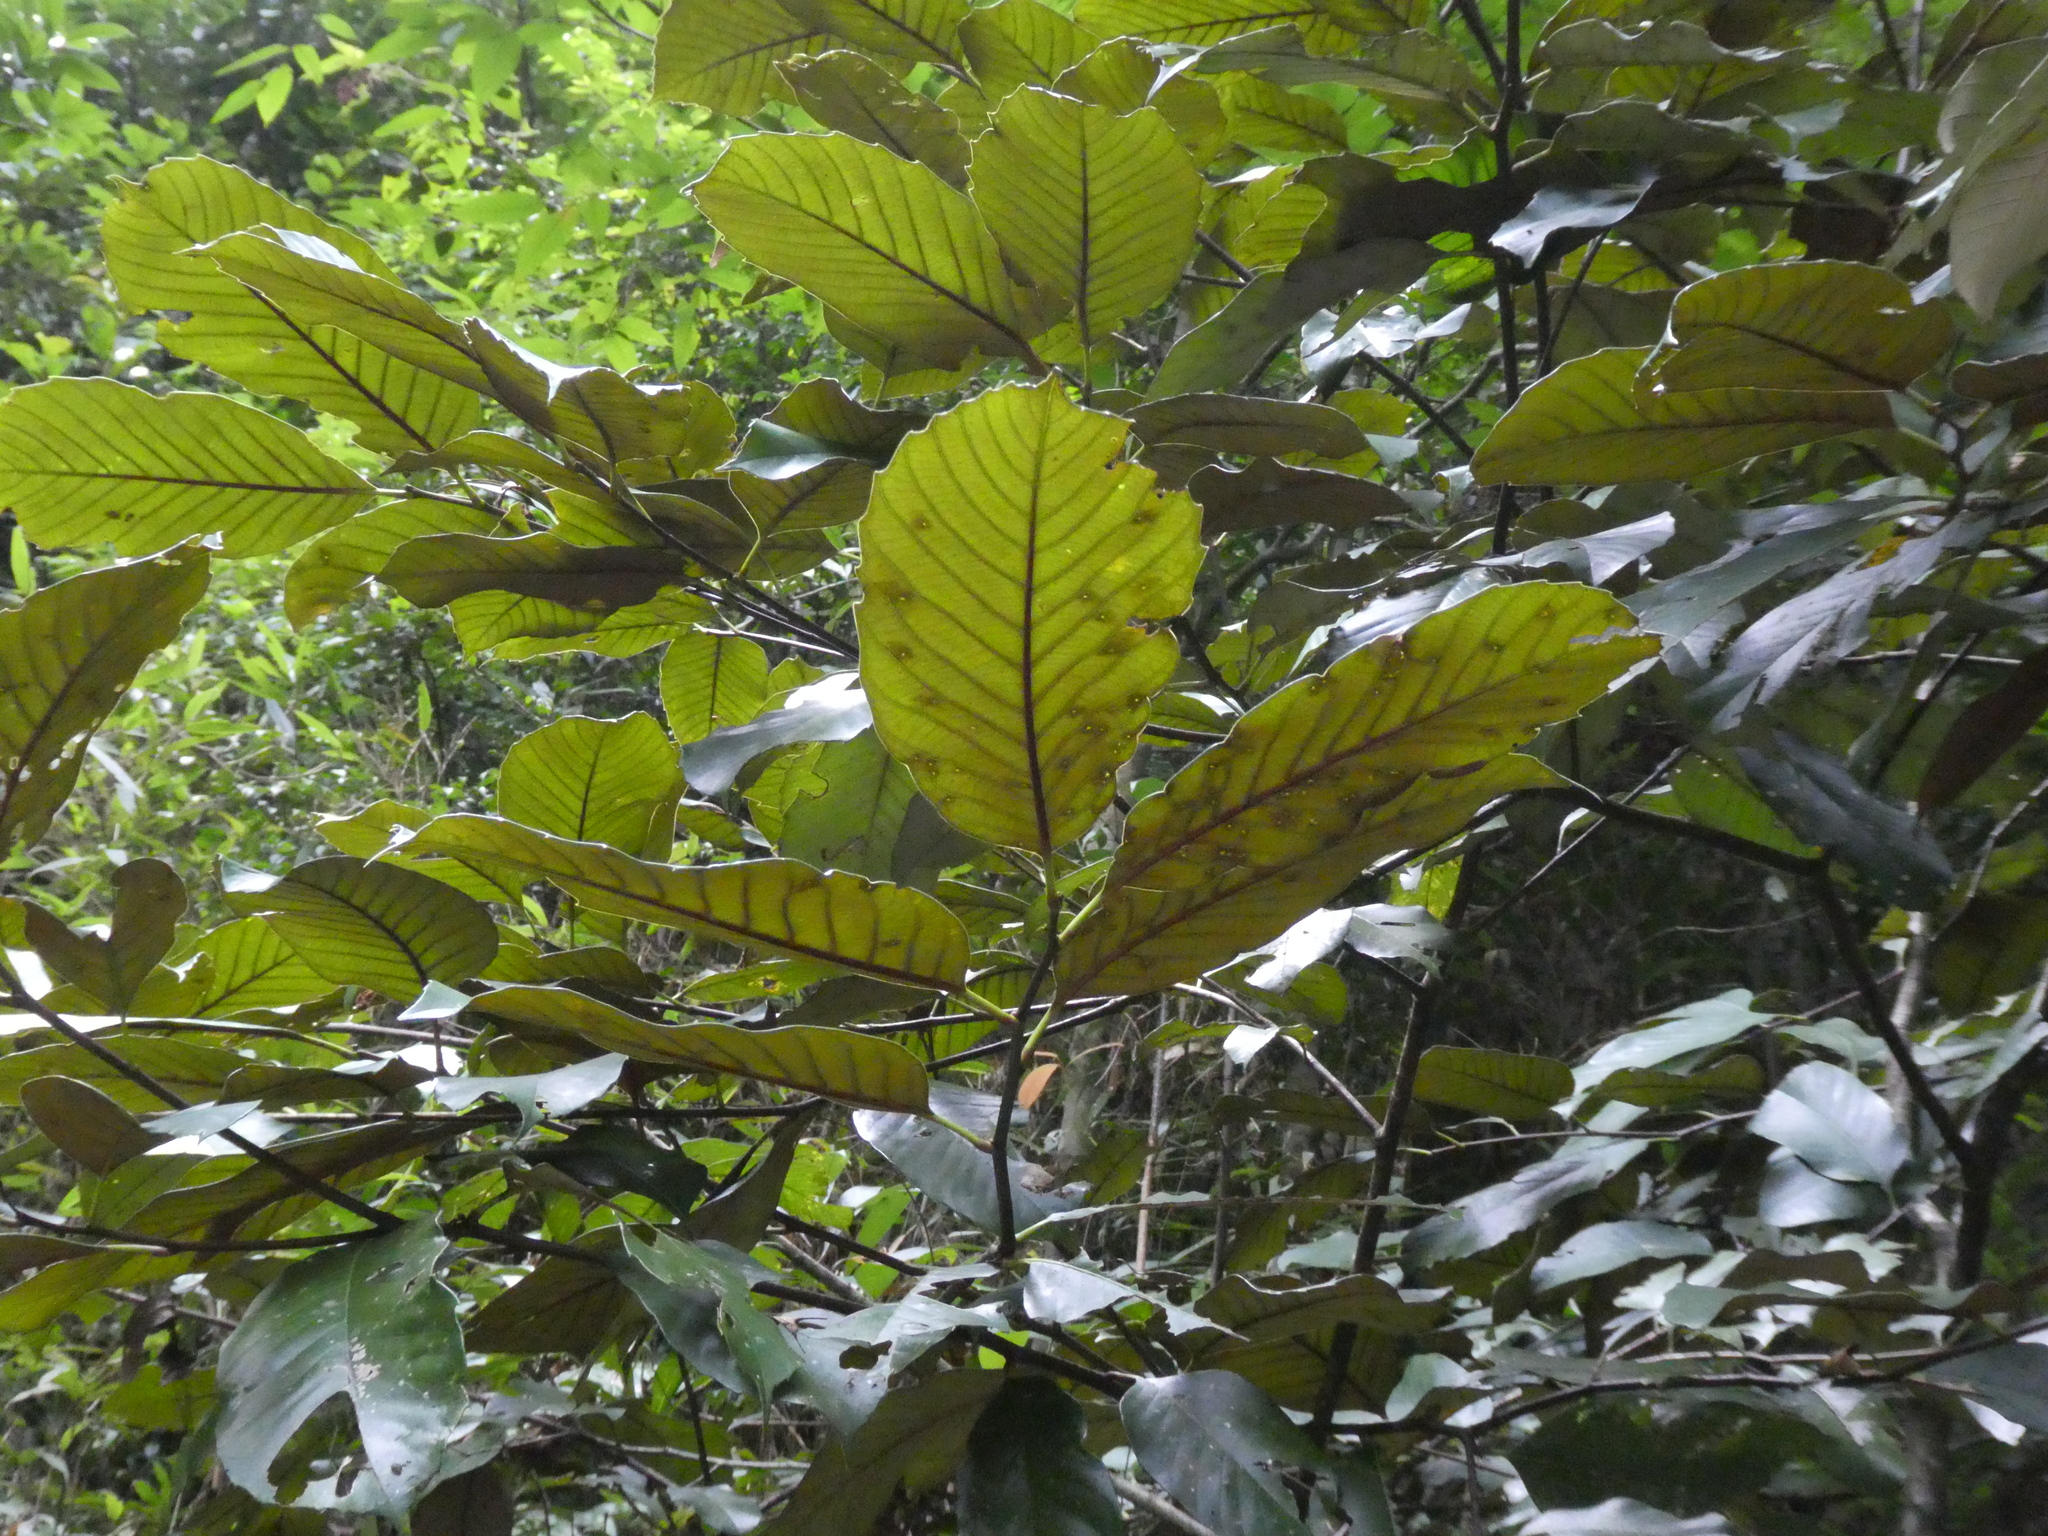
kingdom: Plantae
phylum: Tracheophyta
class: Magnoliopsida
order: Fagales
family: Fagaceae
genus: Castanopsis
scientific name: Castanopsis indica
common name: Indian-chestnut
